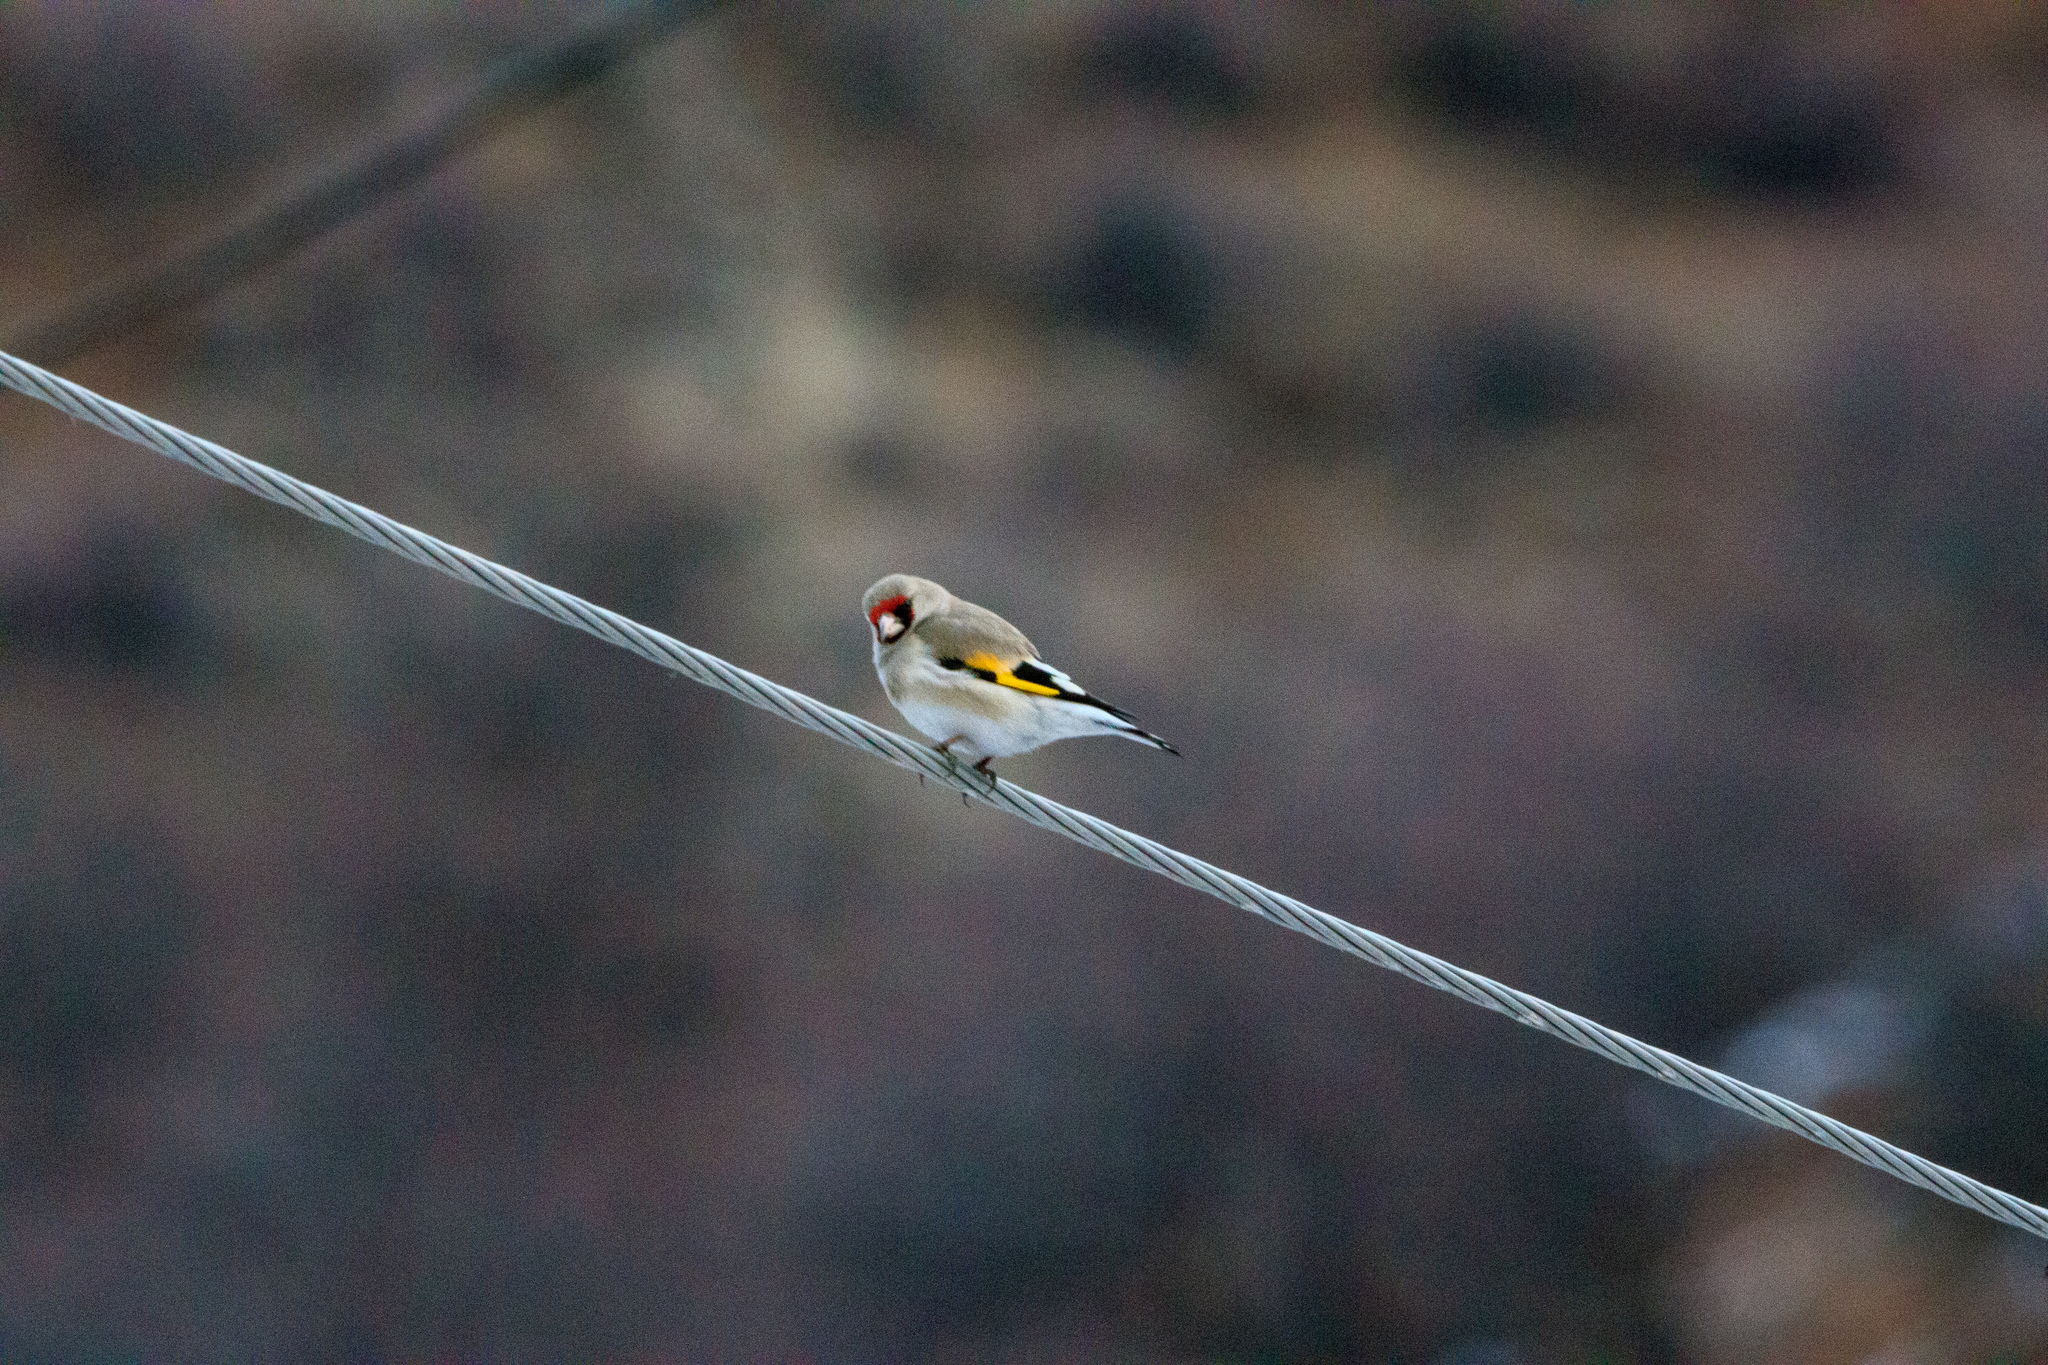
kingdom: Animalia
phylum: Chordata
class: Aves
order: Passeriformes
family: Fringillidae
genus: Carduelis
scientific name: Carduelis carduelis
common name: European goldfinch
